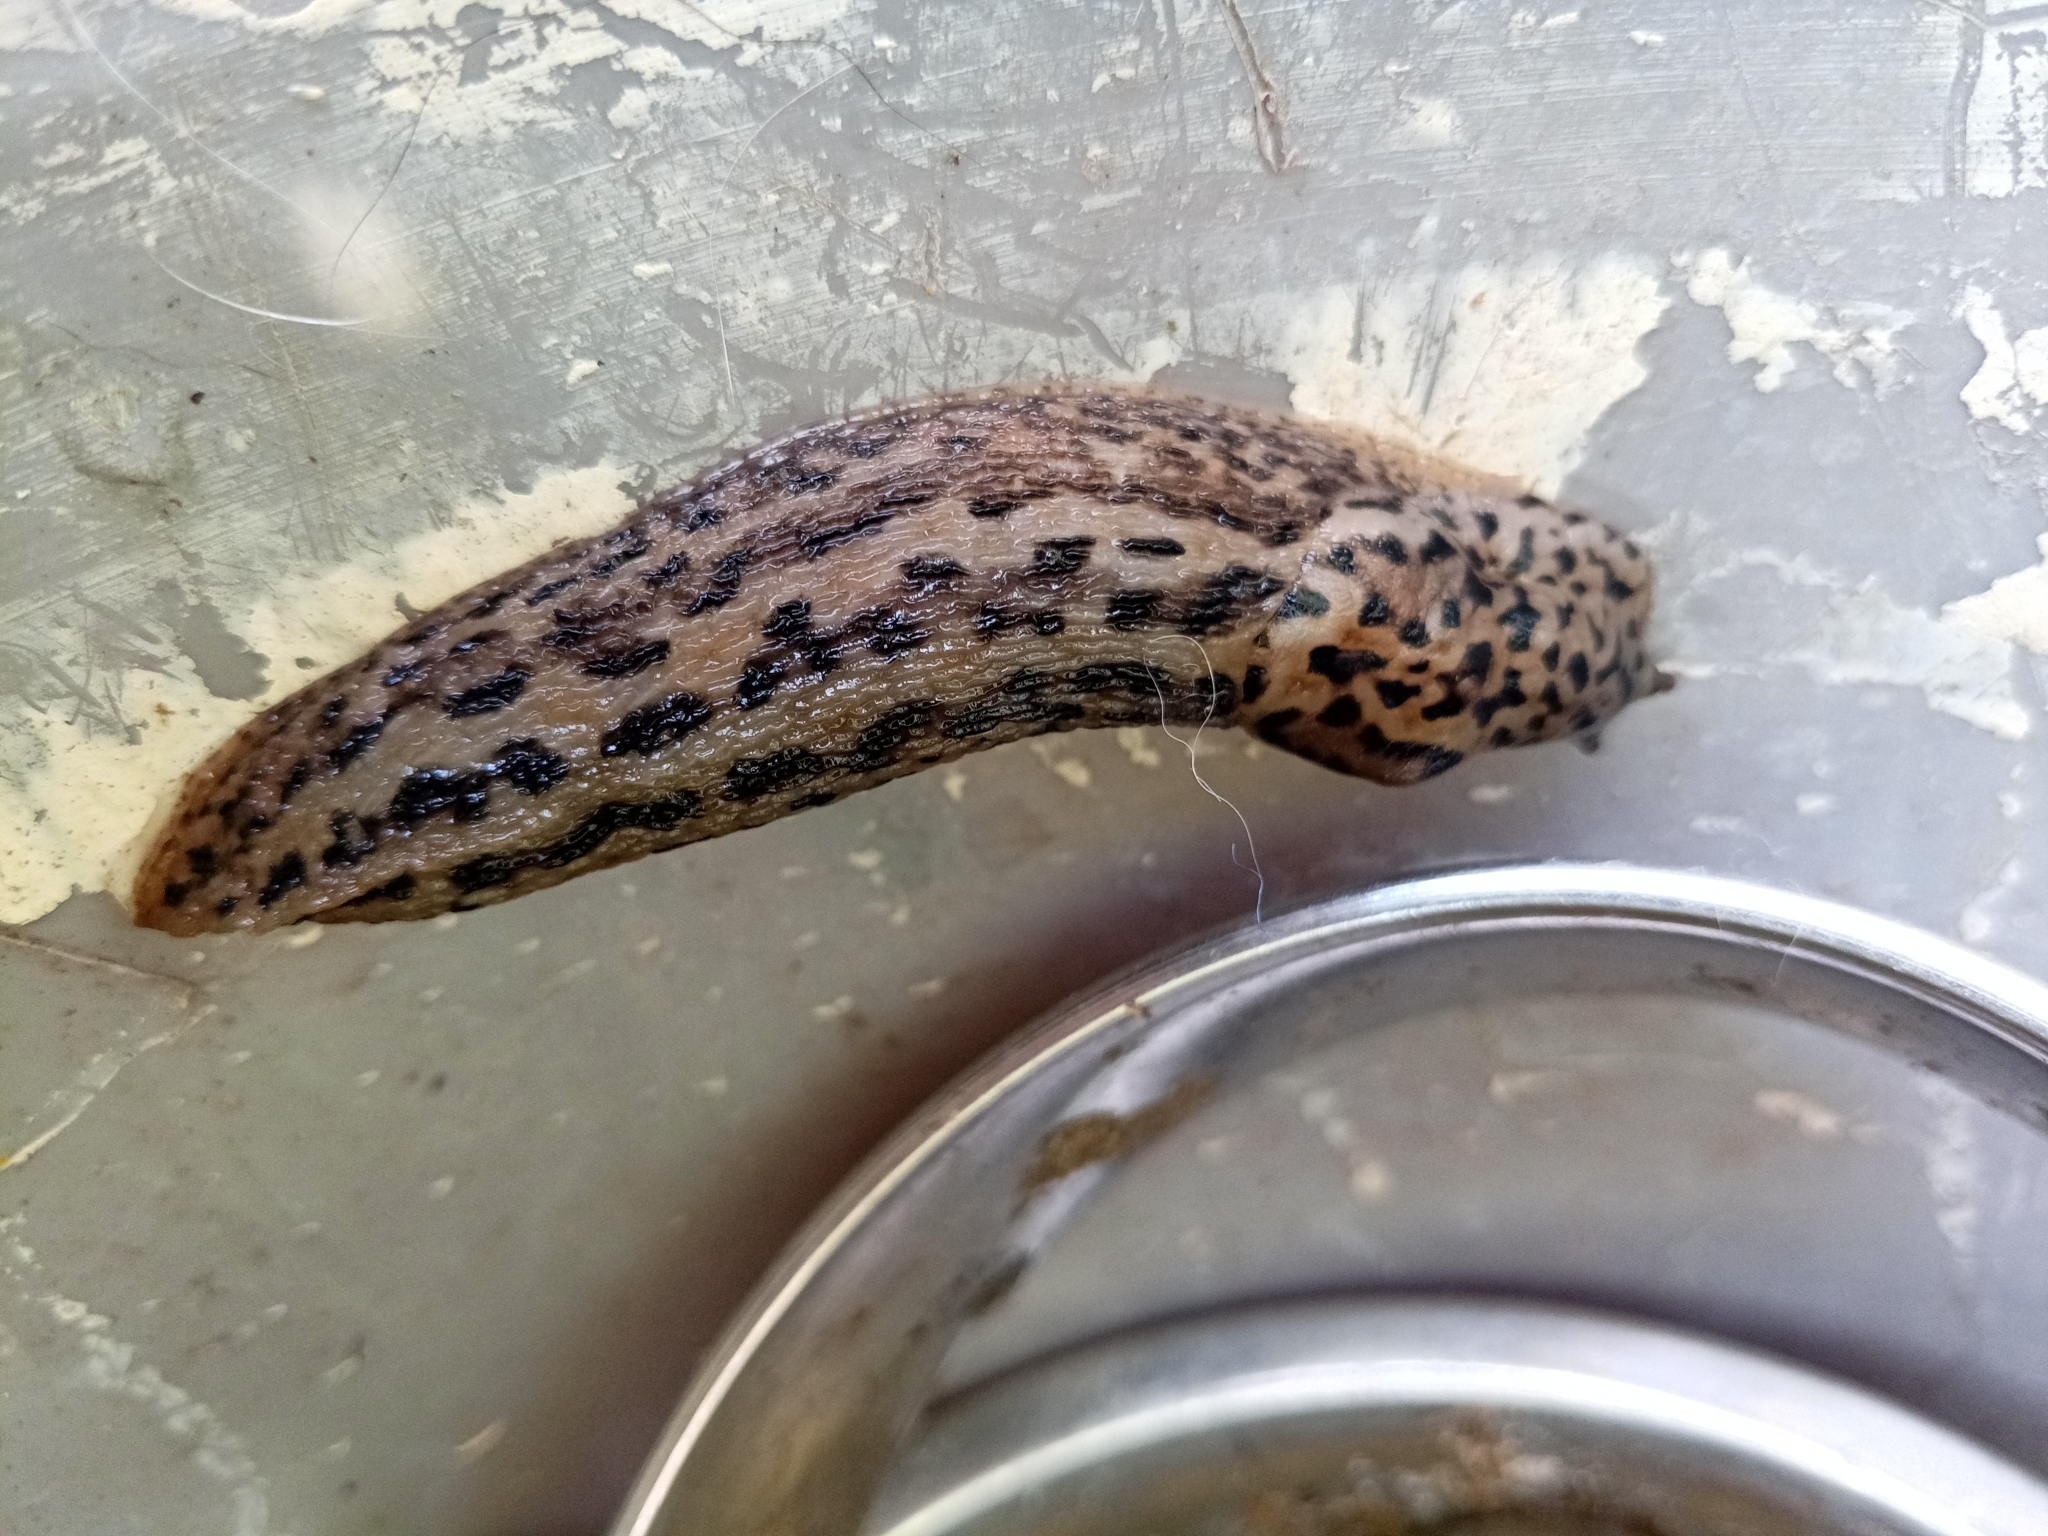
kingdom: Animalia
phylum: Mollusca
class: Gastropoda
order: Stylommatophora
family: Limacidae
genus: Limax
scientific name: Limax maximus
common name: Great grey slug
